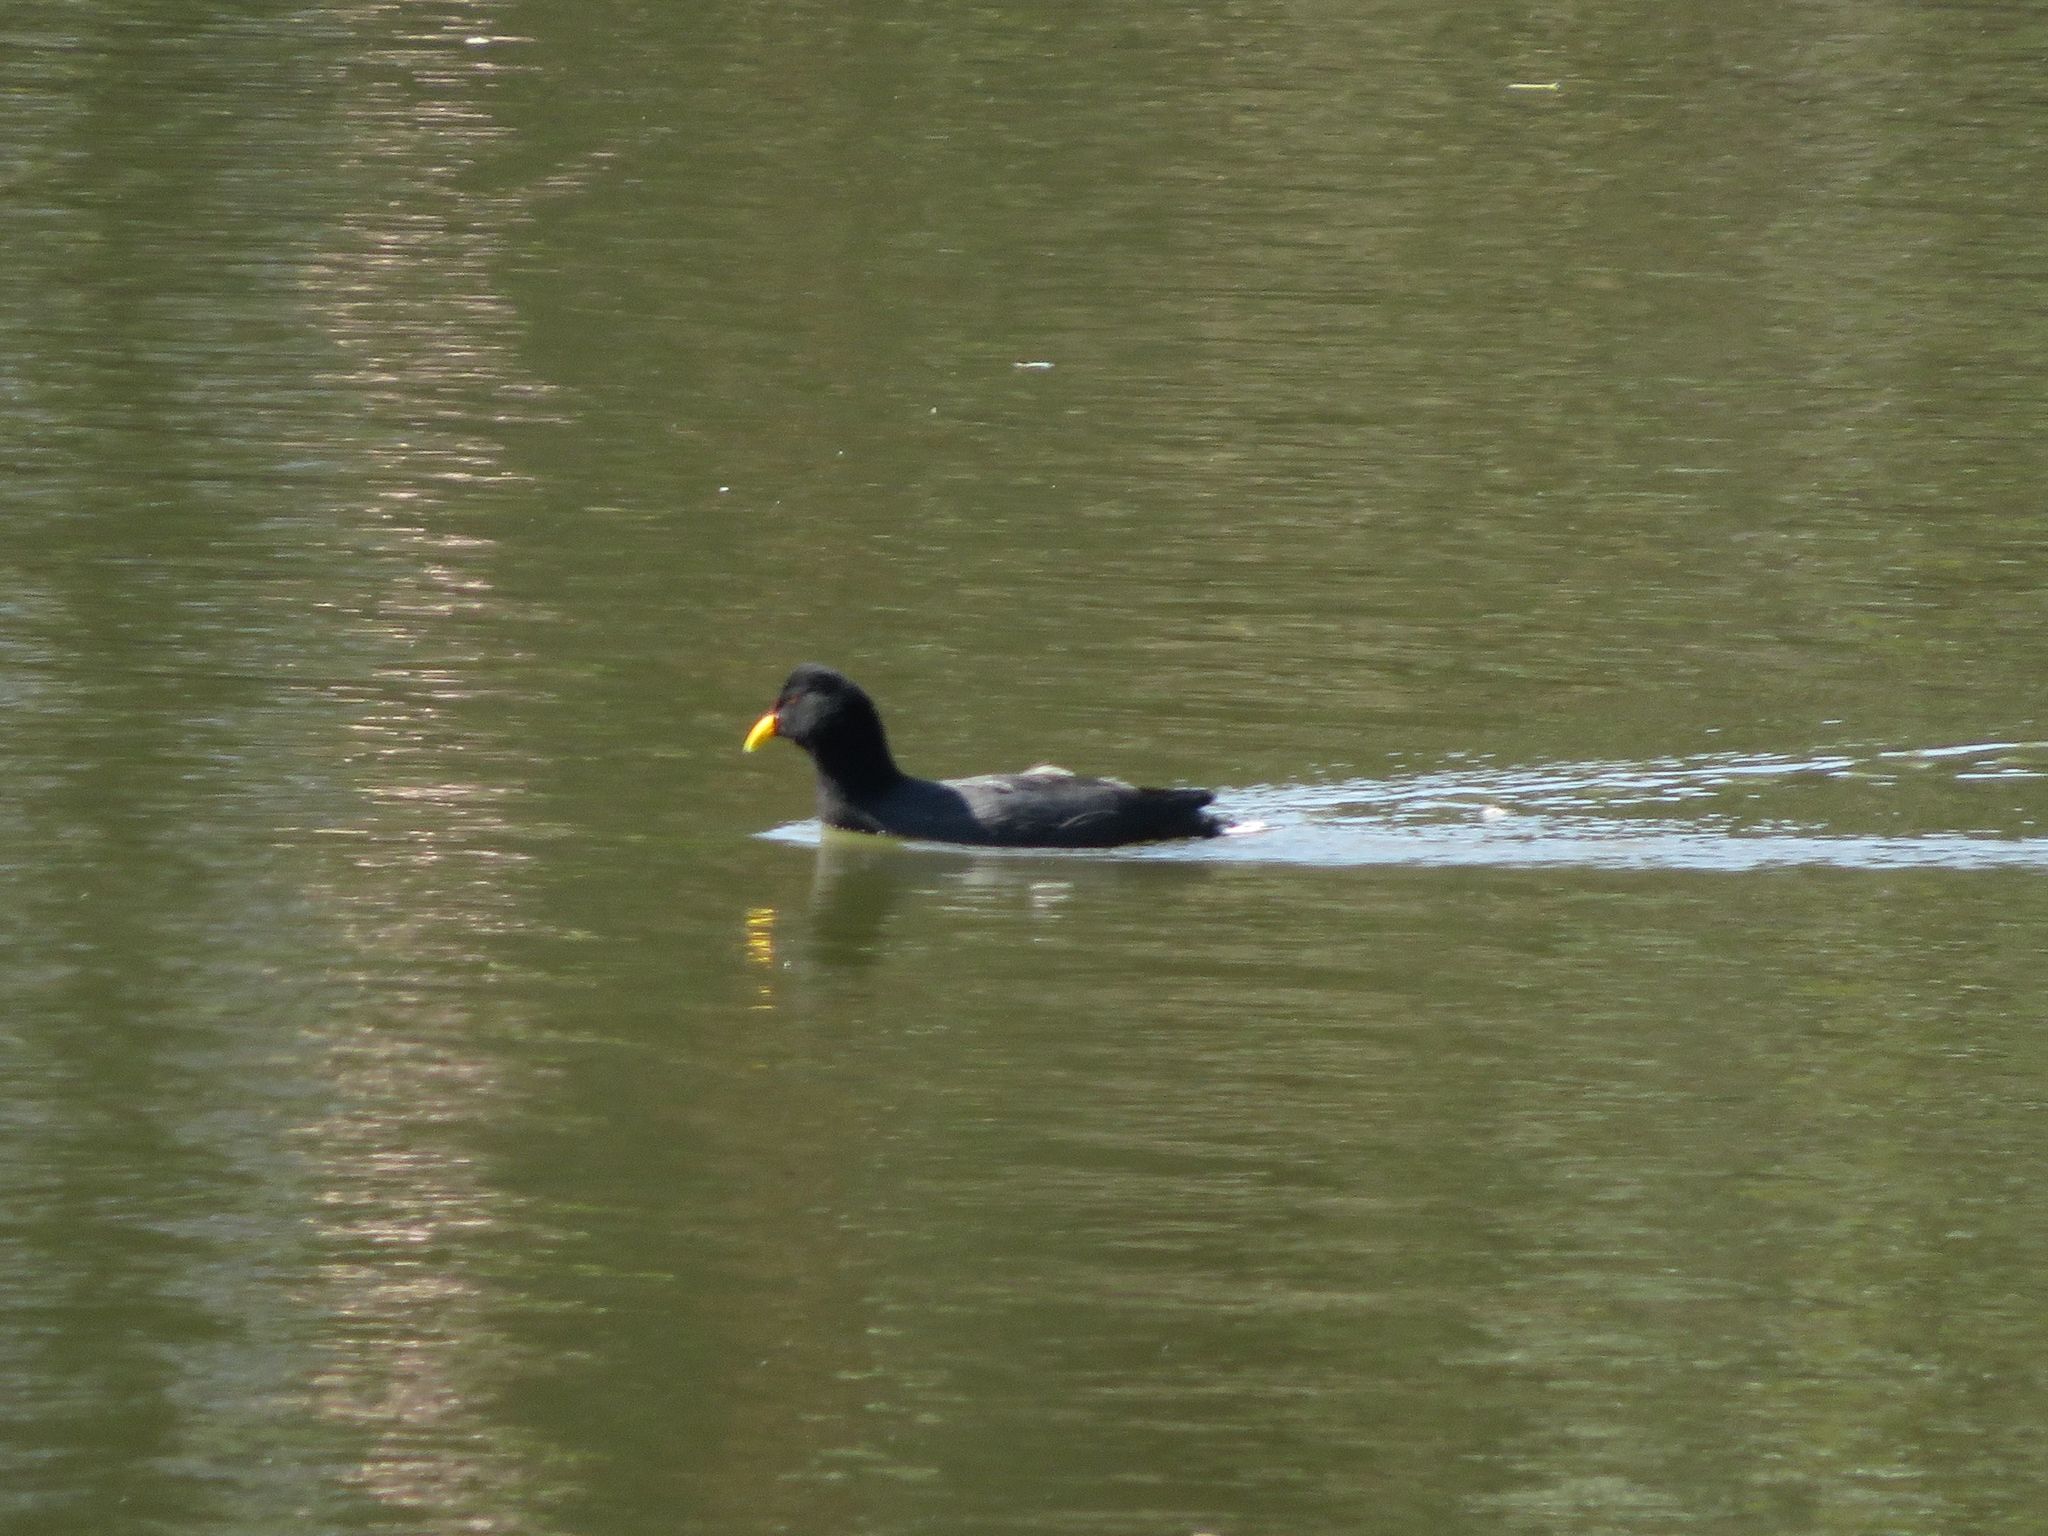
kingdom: Animalia
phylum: Chordata
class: Aves
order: Gruiformes
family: Rallidae
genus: Fulica
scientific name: Fulica rufifrons
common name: Red-fronted coot
